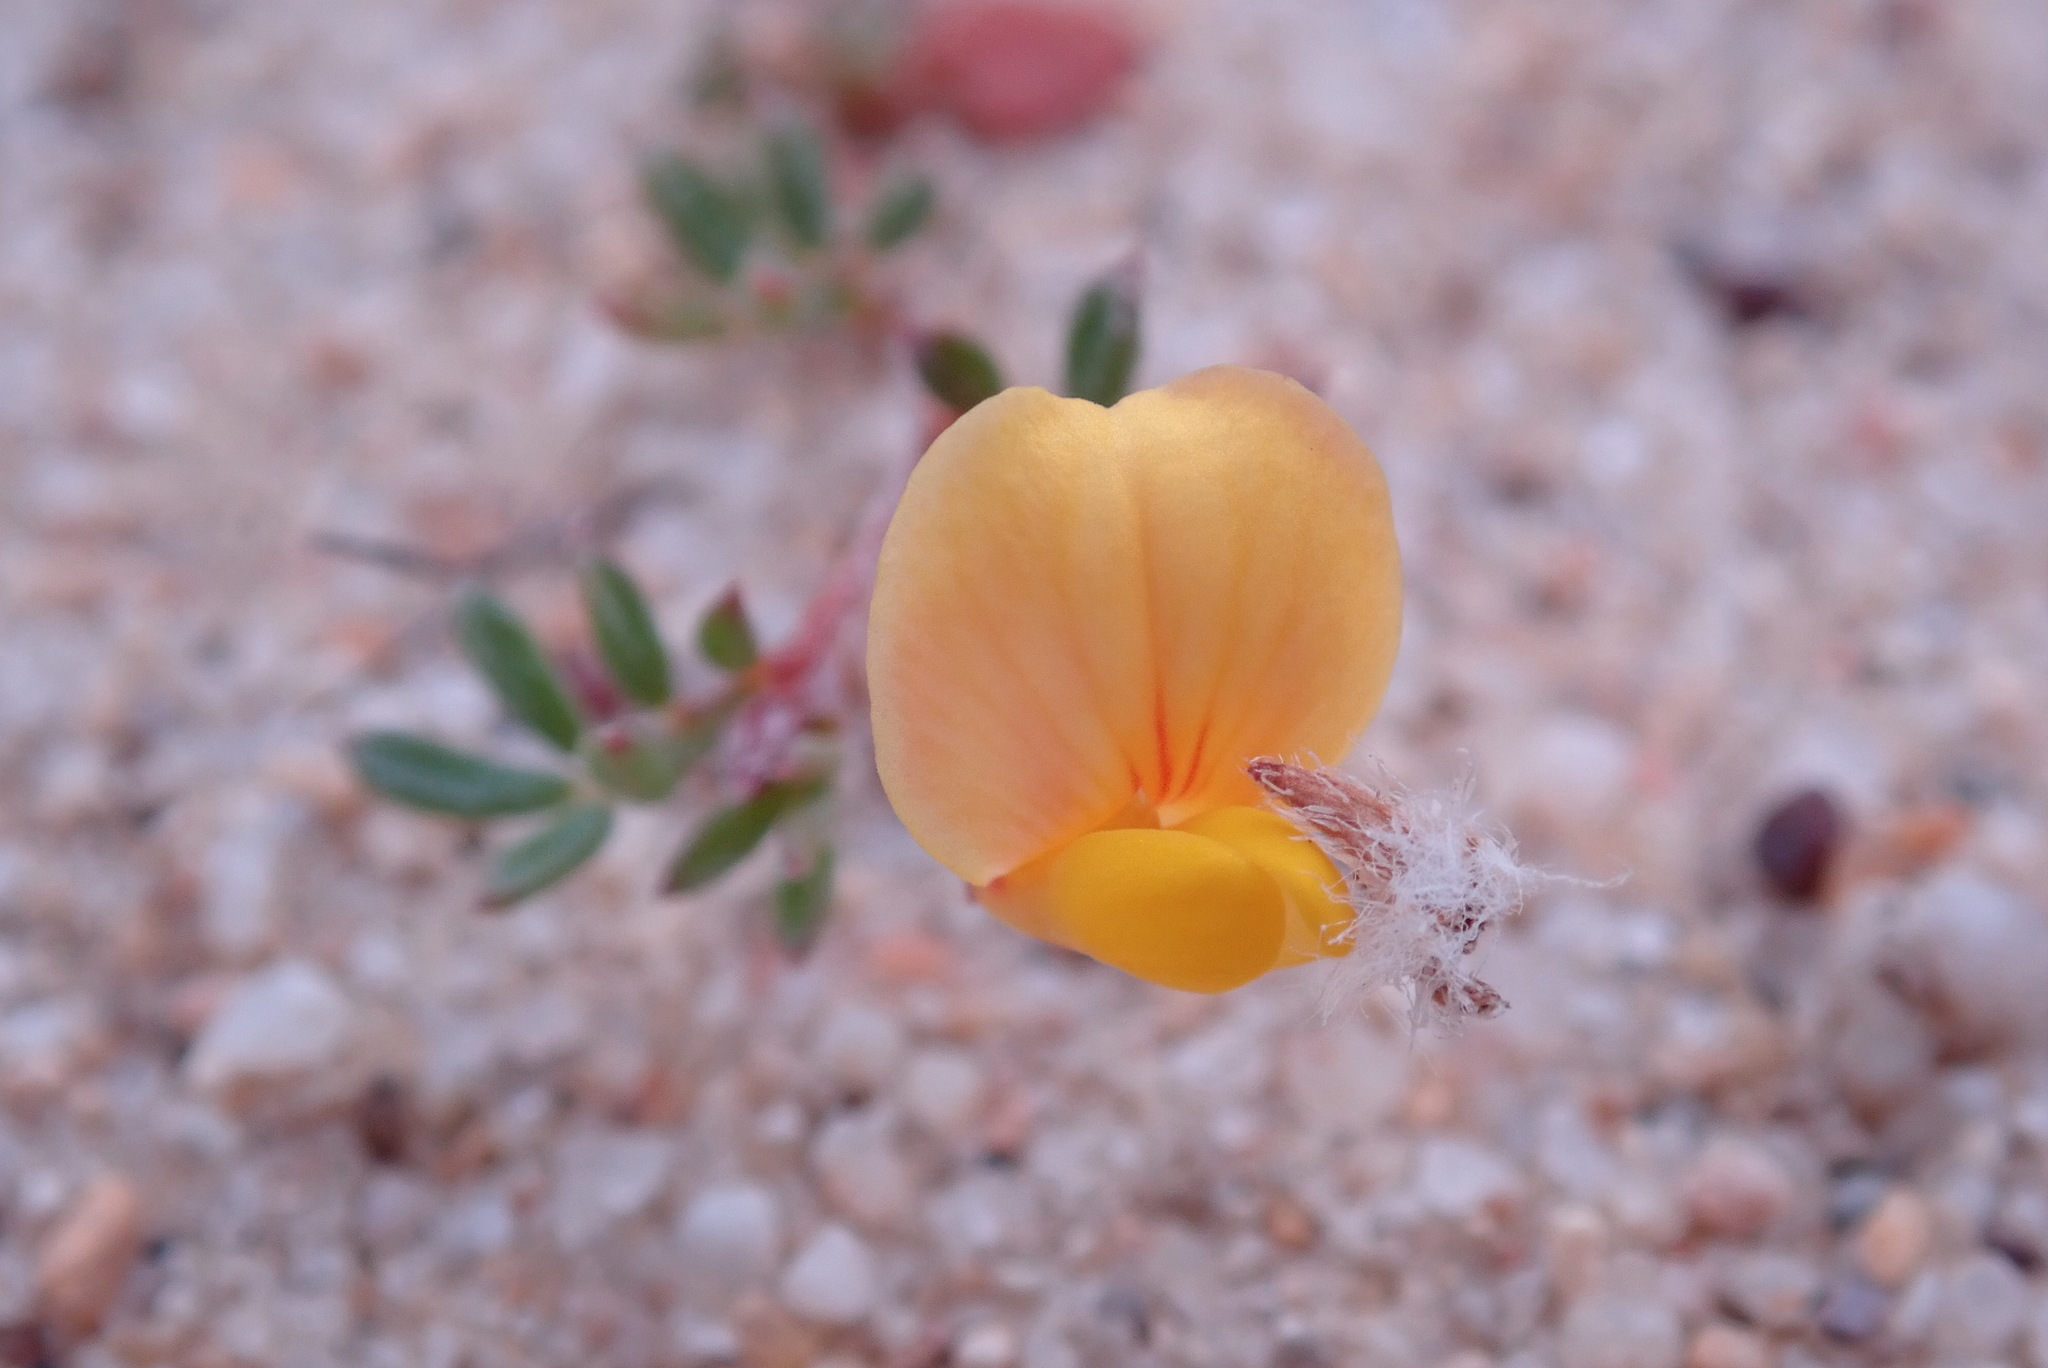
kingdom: Plantae
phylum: Tracheophyta
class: Magnoliopsida
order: Fabales
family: Fabaceae
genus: Acmispon
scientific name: Acmispon strigosus
